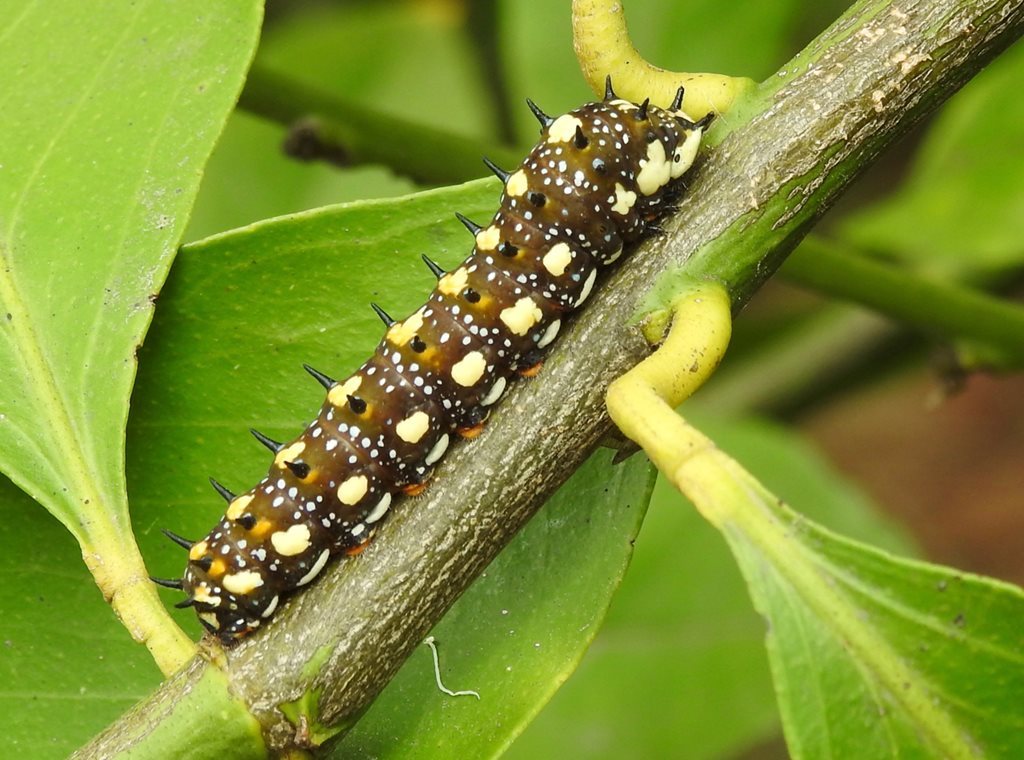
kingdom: Animalia
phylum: Arthropoda
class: Insecta
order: Lepidoptera
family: Papilionidae
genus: Papilio
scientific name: Papilio anactus
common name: Dingy swallowtail
